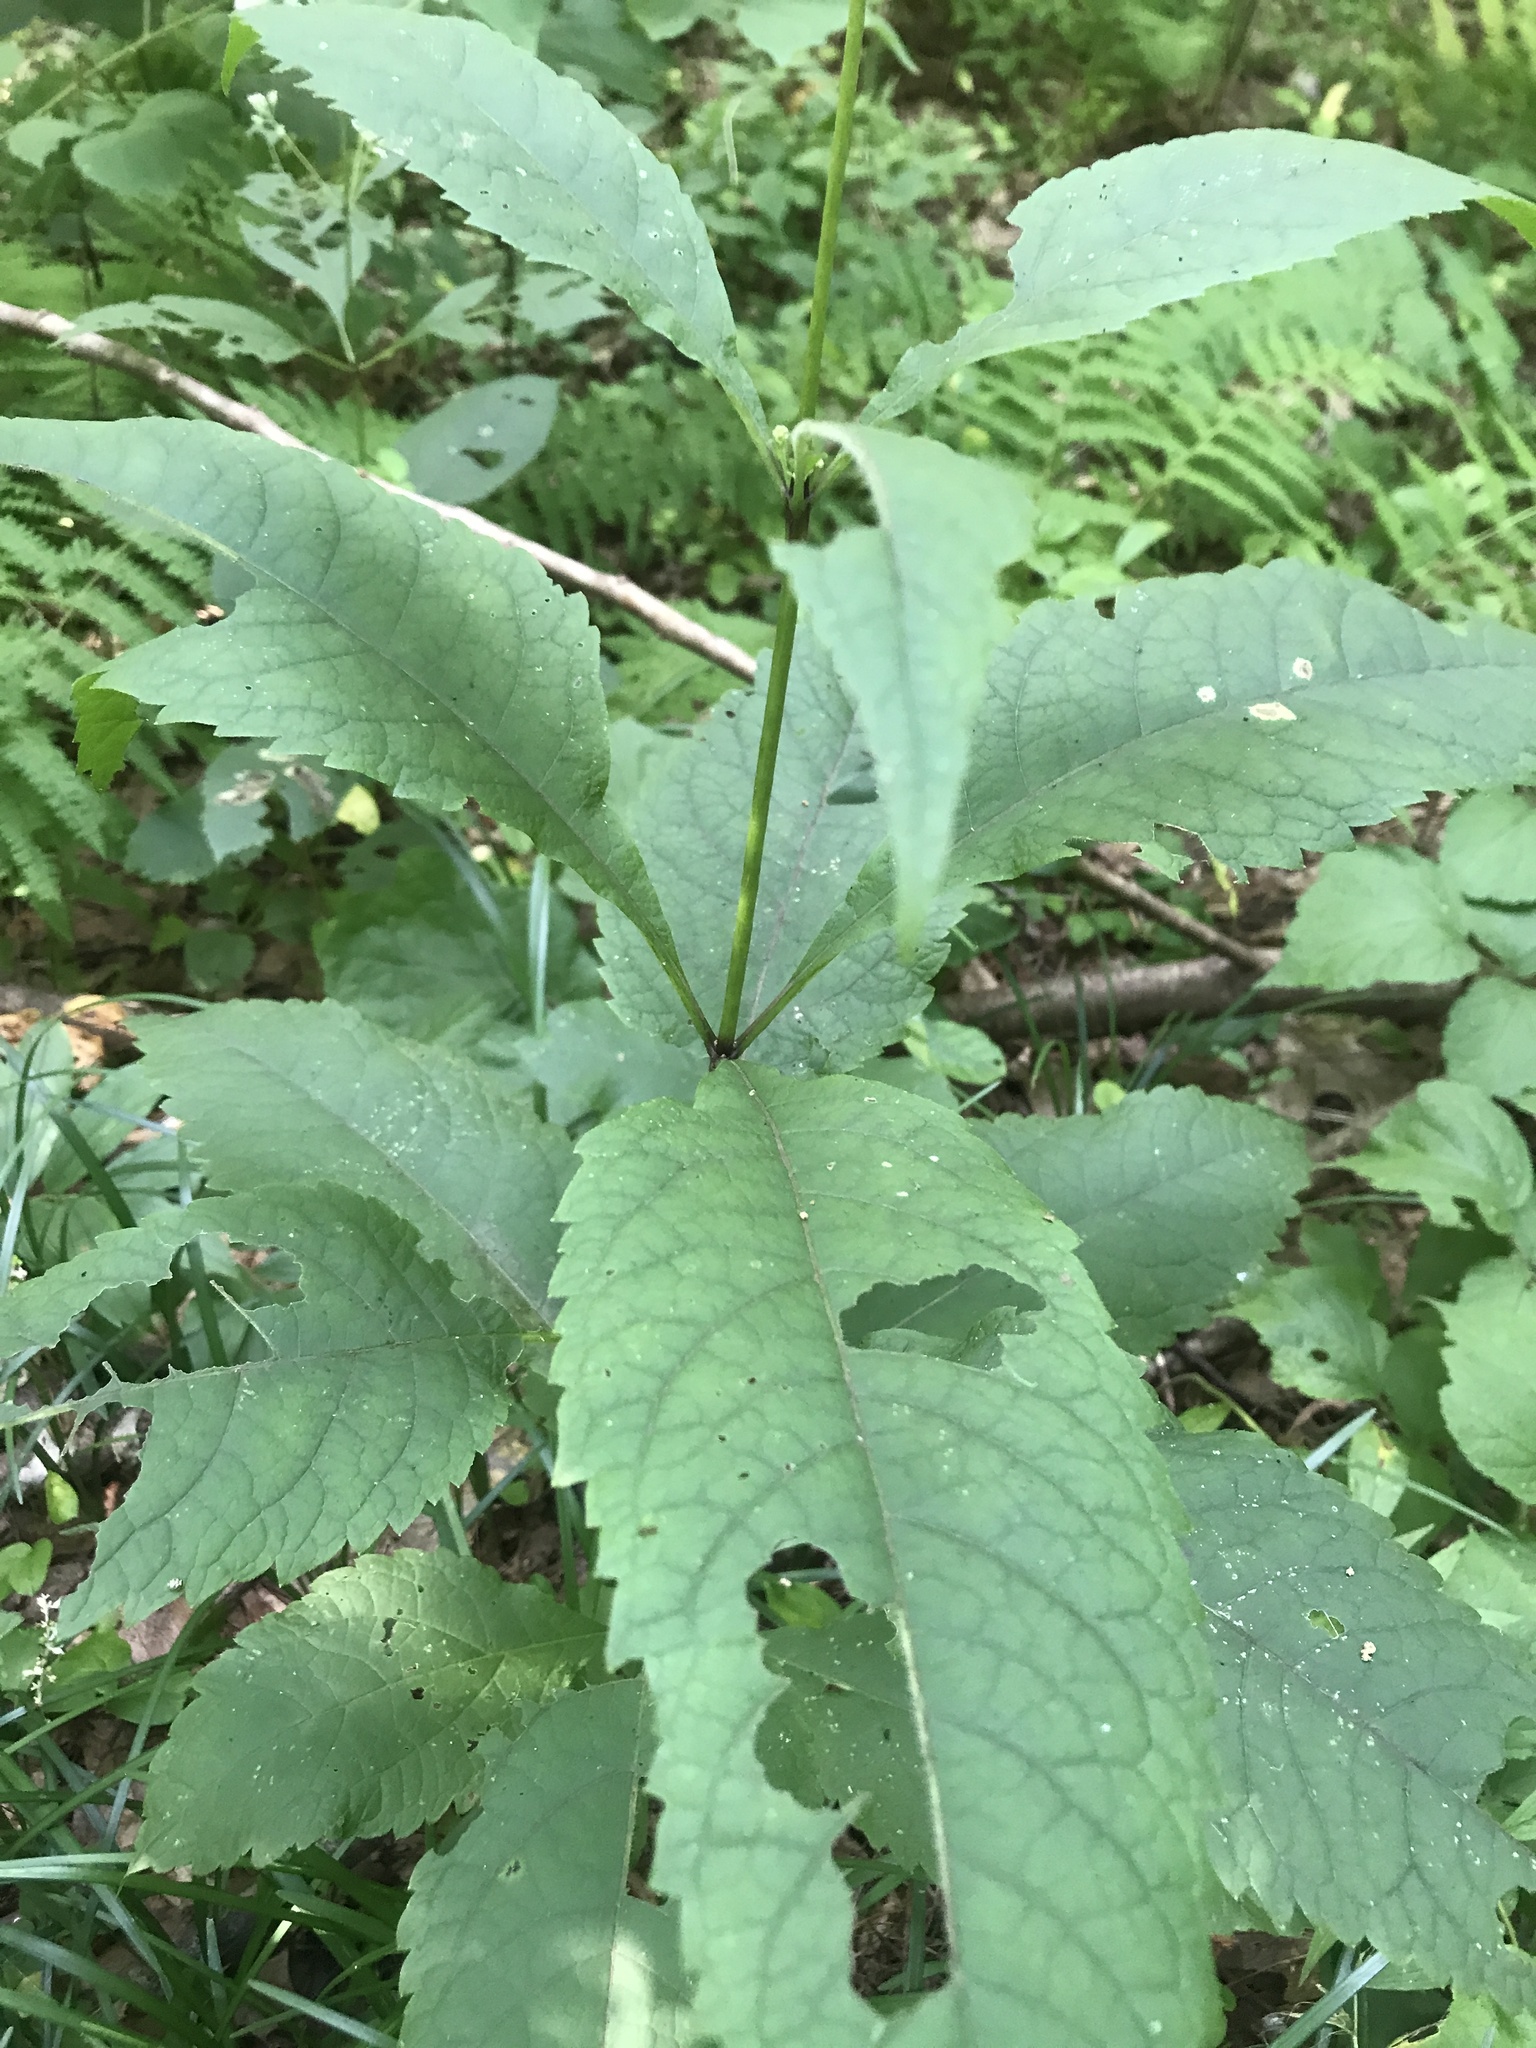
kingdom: Plantae
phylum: Tracheophyta
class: Magnoliopsida
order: Asterales
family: Asteraceae
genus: Eutrochium
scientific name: Eutrochium purpureum
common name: Gravelroot
